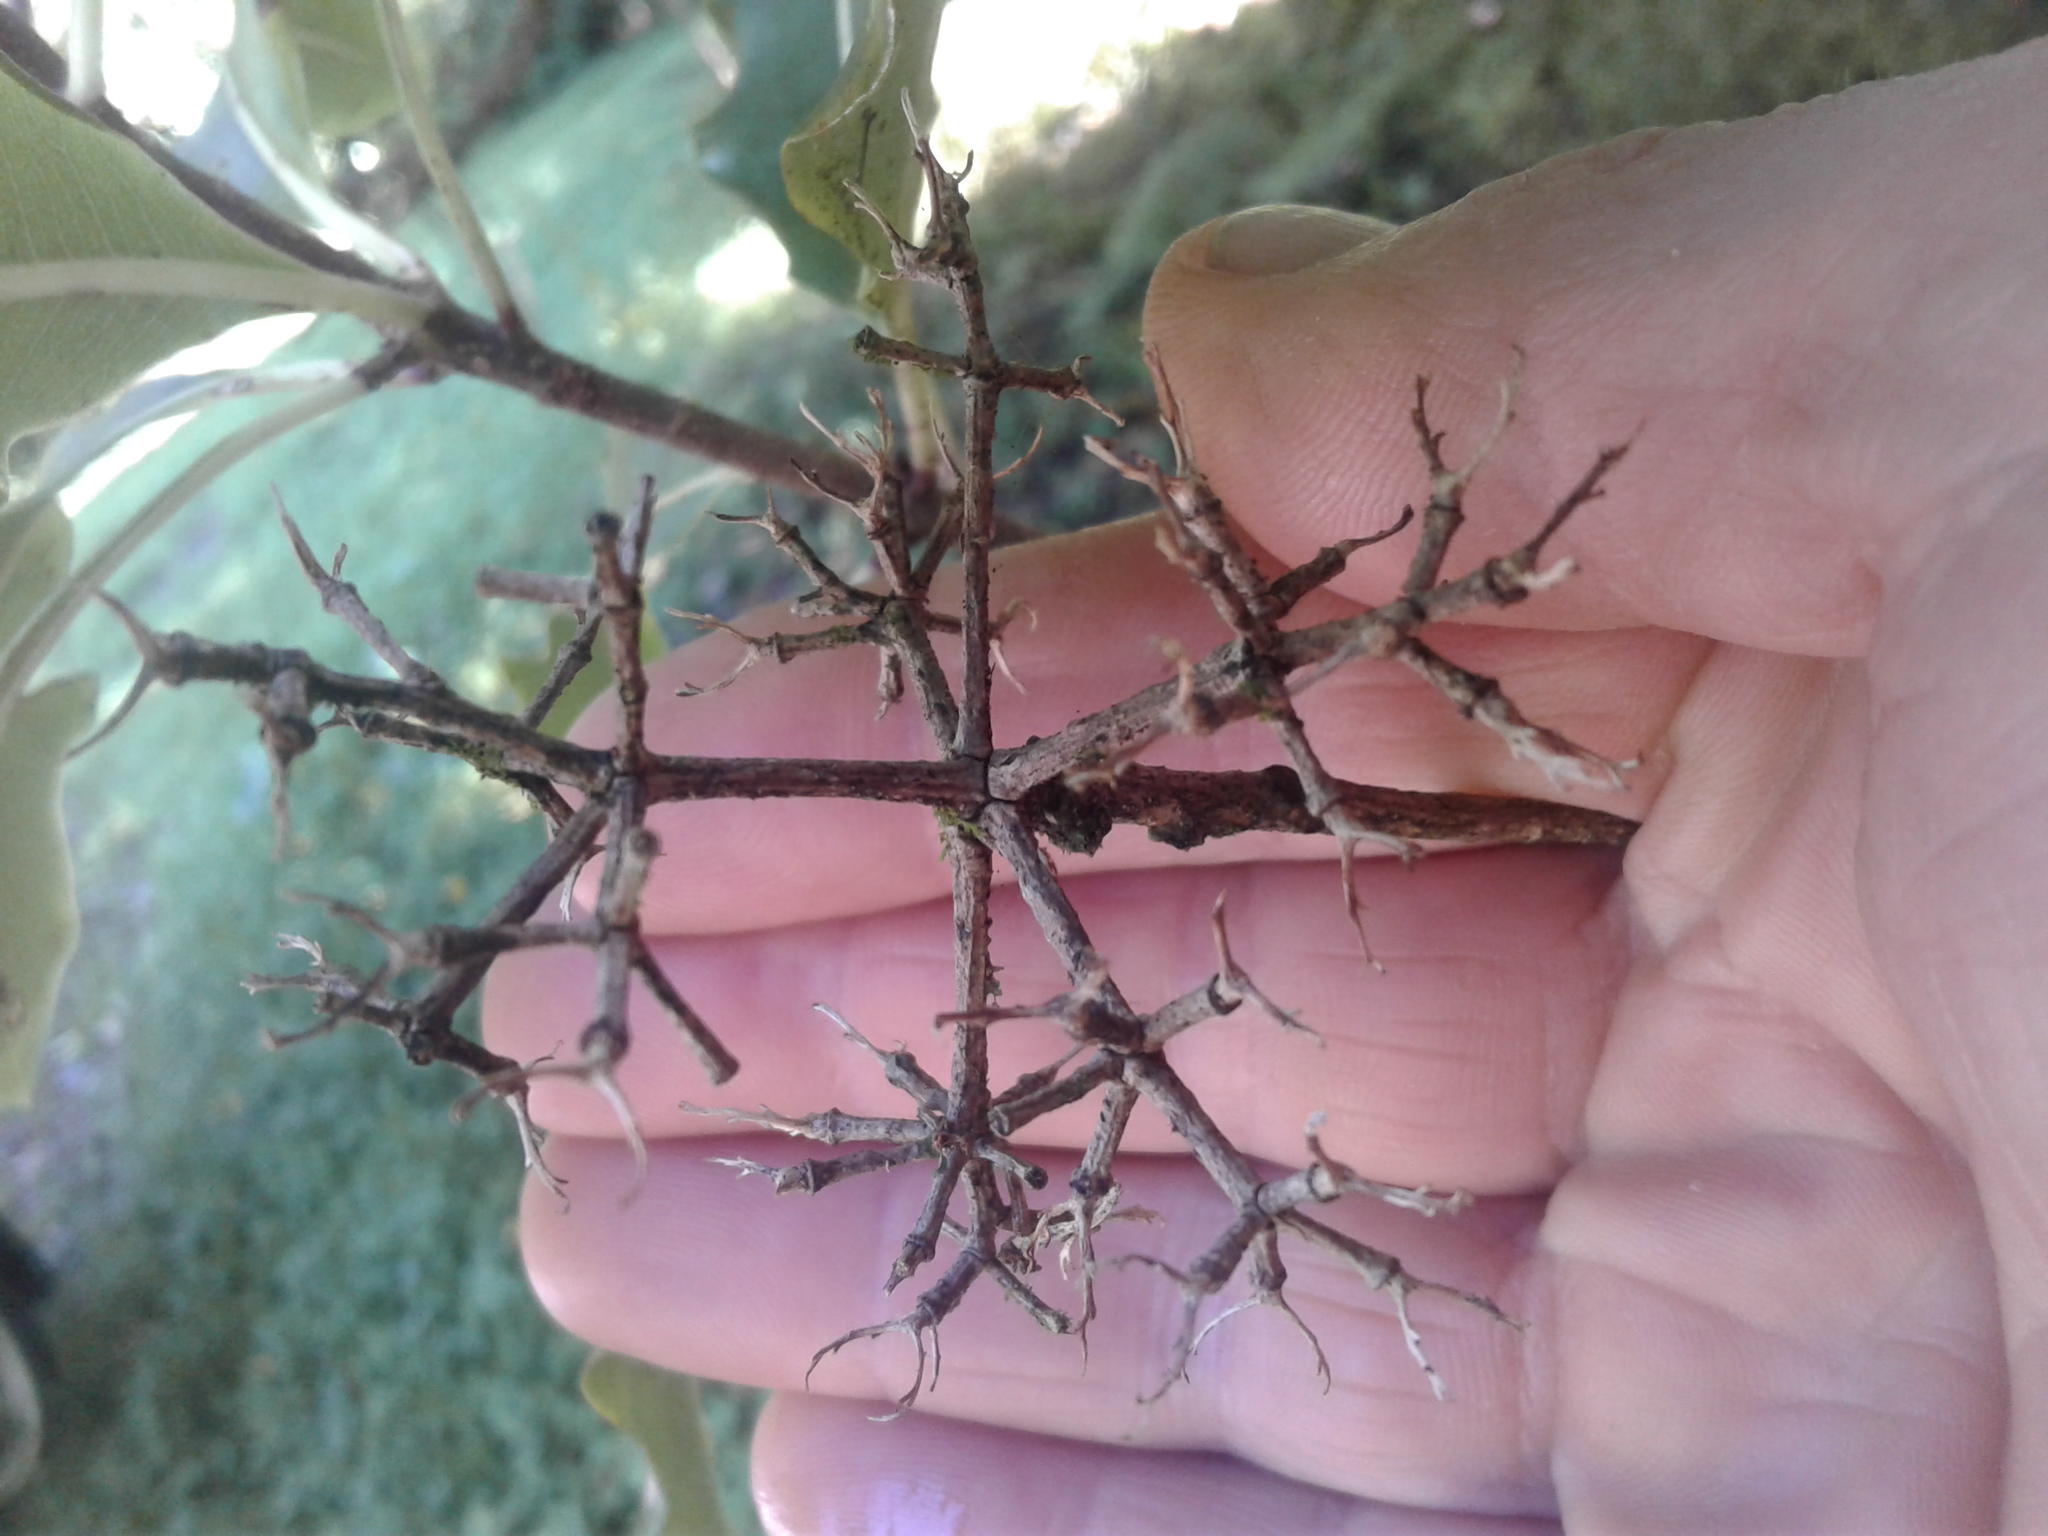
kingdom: Plantae
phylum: Tracheophyta
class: Magnoliopsida
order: Apiales
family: Pittosporaceae
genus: Pittosporum
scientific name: Pittosporum eugenioides
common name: Lemonwood
